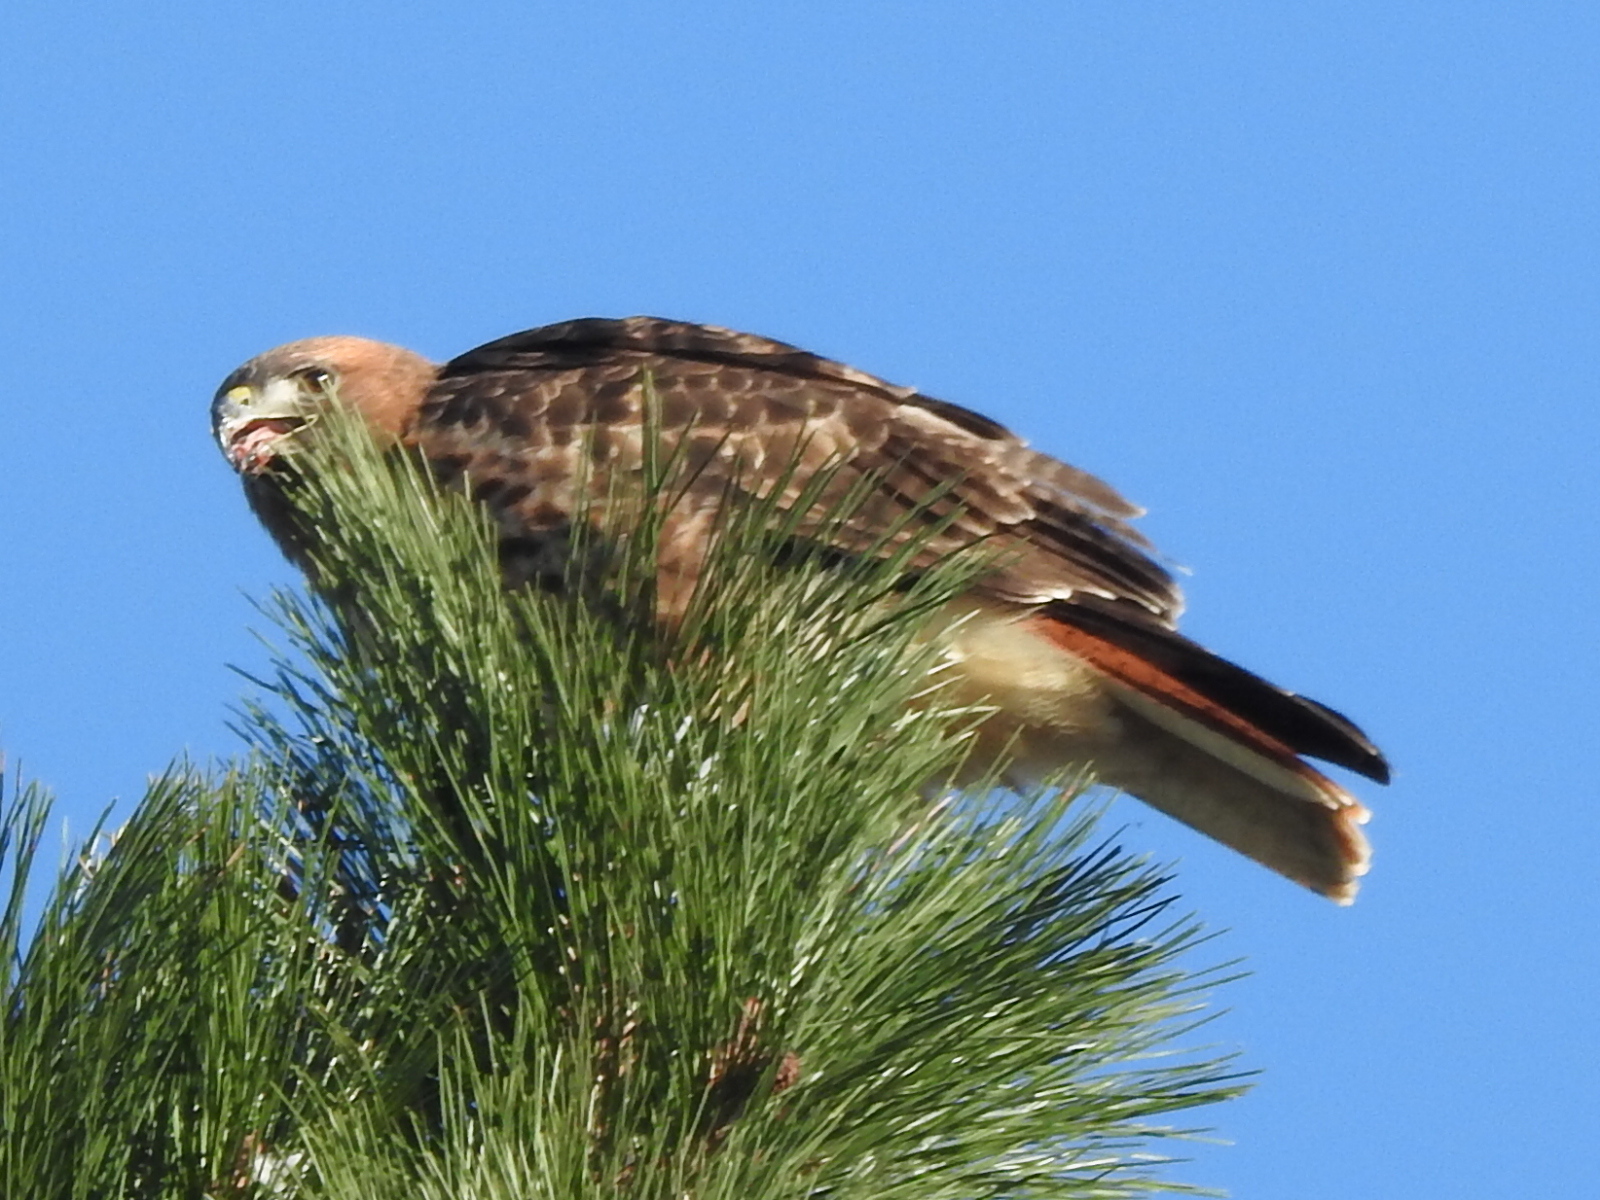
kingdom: Animalia
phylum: Chordata
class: Aves
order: Accipitriformes
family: Accipitridae
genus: Buteo
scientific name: Buteo jamaicensis
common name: Red-tailed hawk
